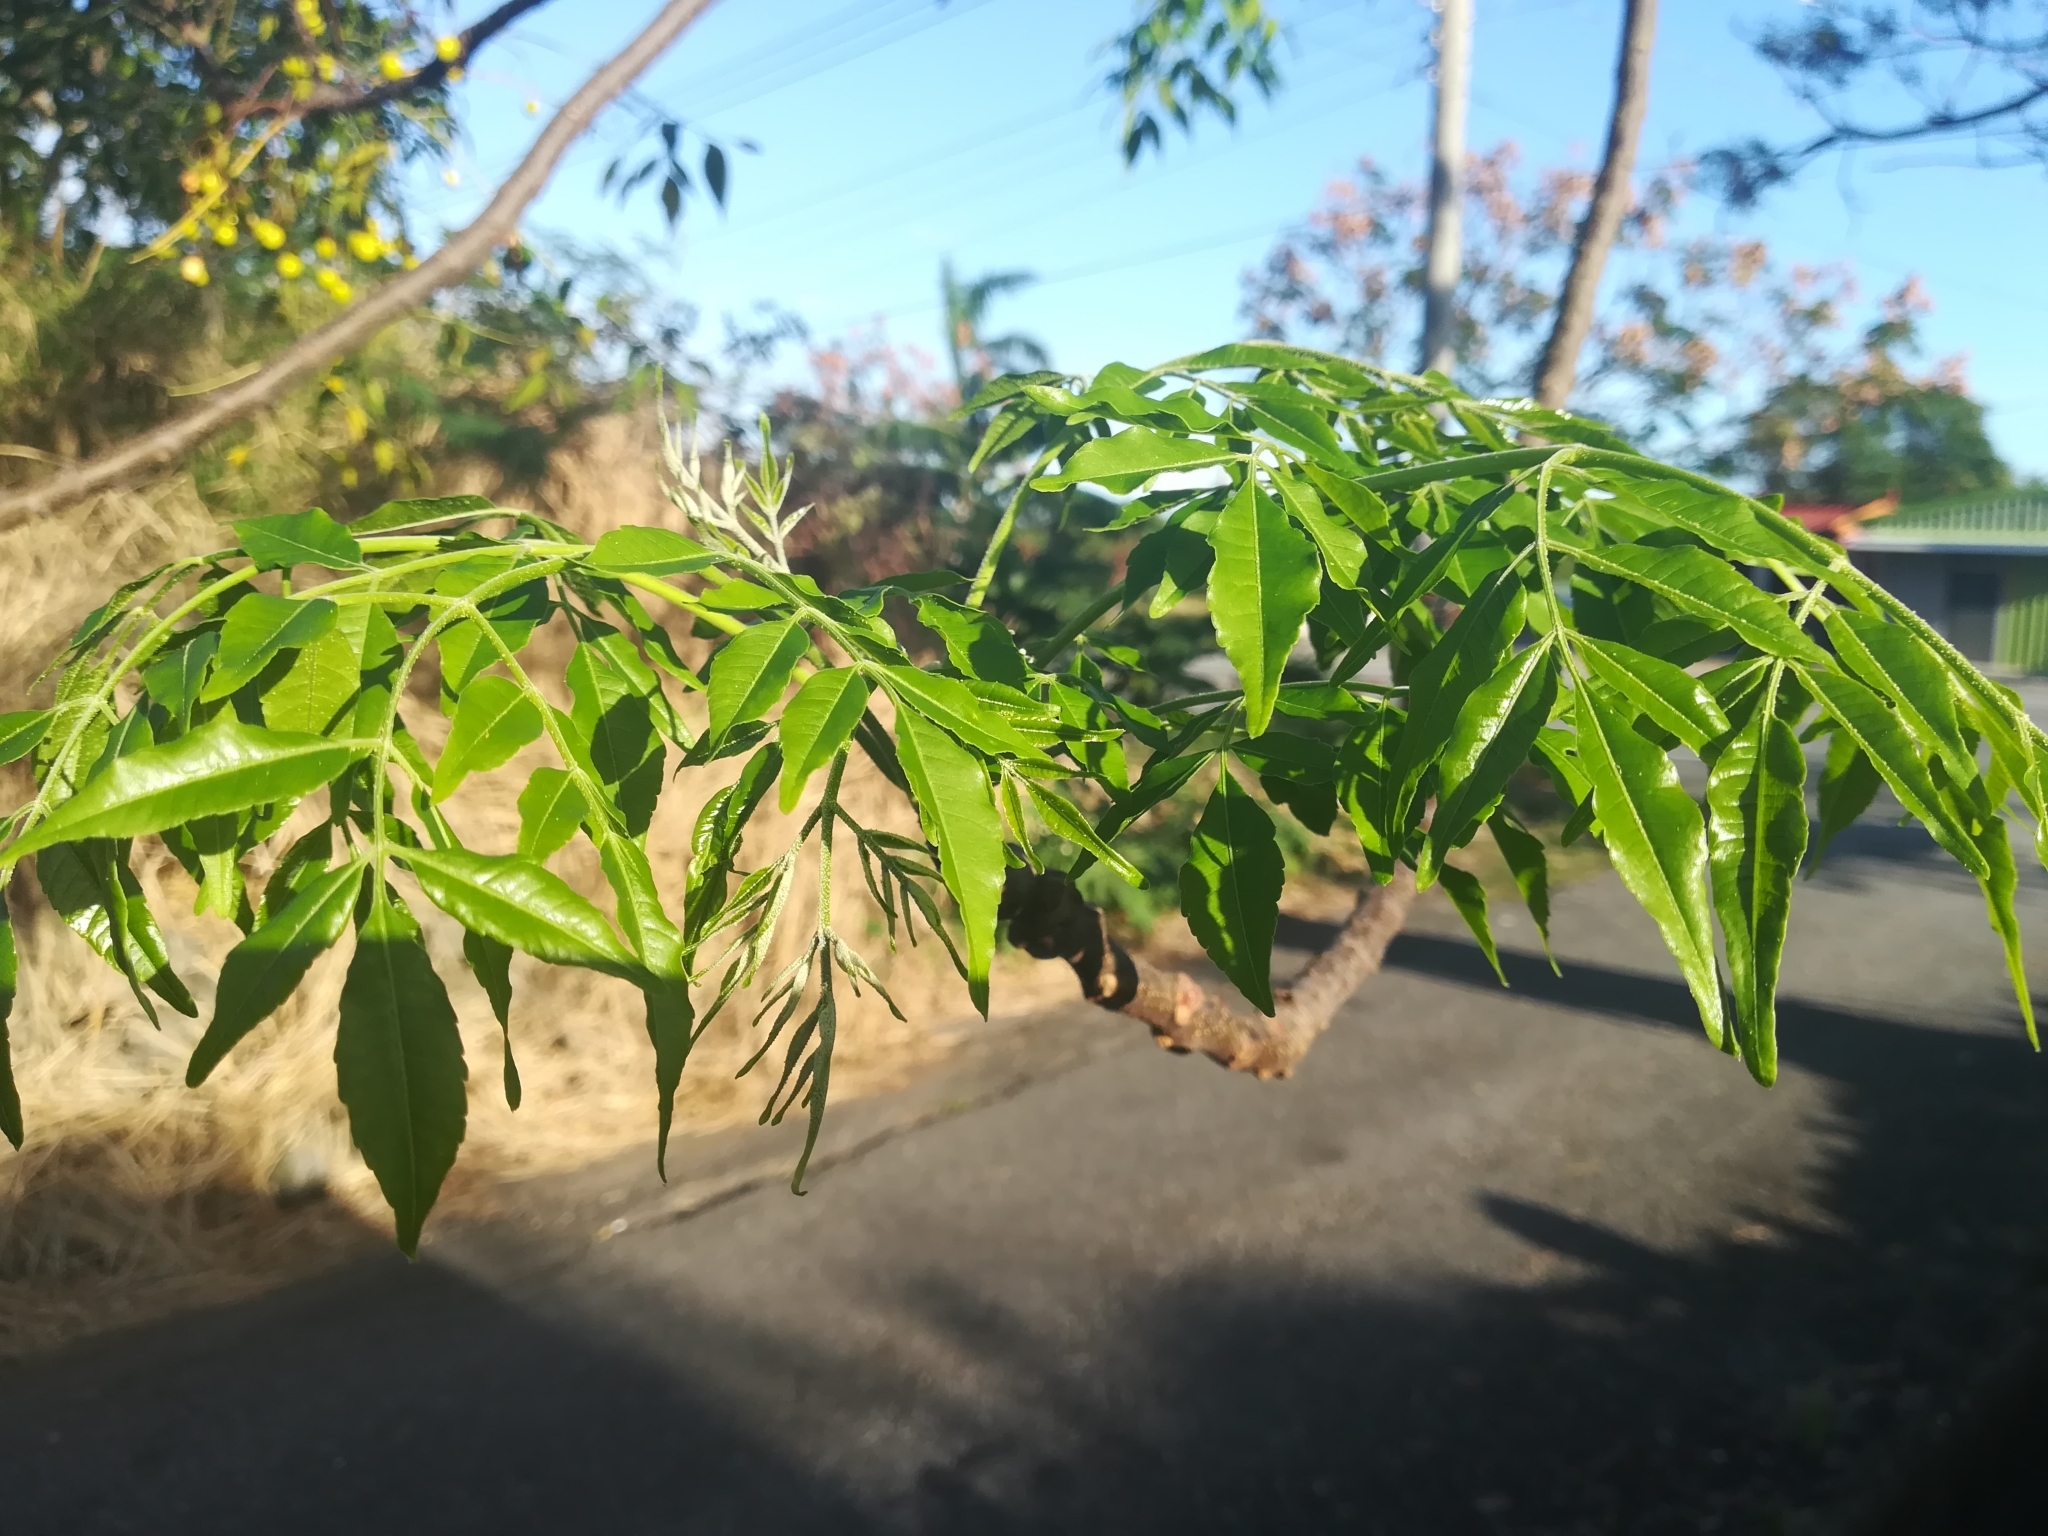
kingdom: Plantae
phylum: Tracheophyta
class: Magnoliopsida
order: Sapindales
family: Meliaceae
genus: Melia
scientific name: Melia azedarach
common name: Chinaberrytree
